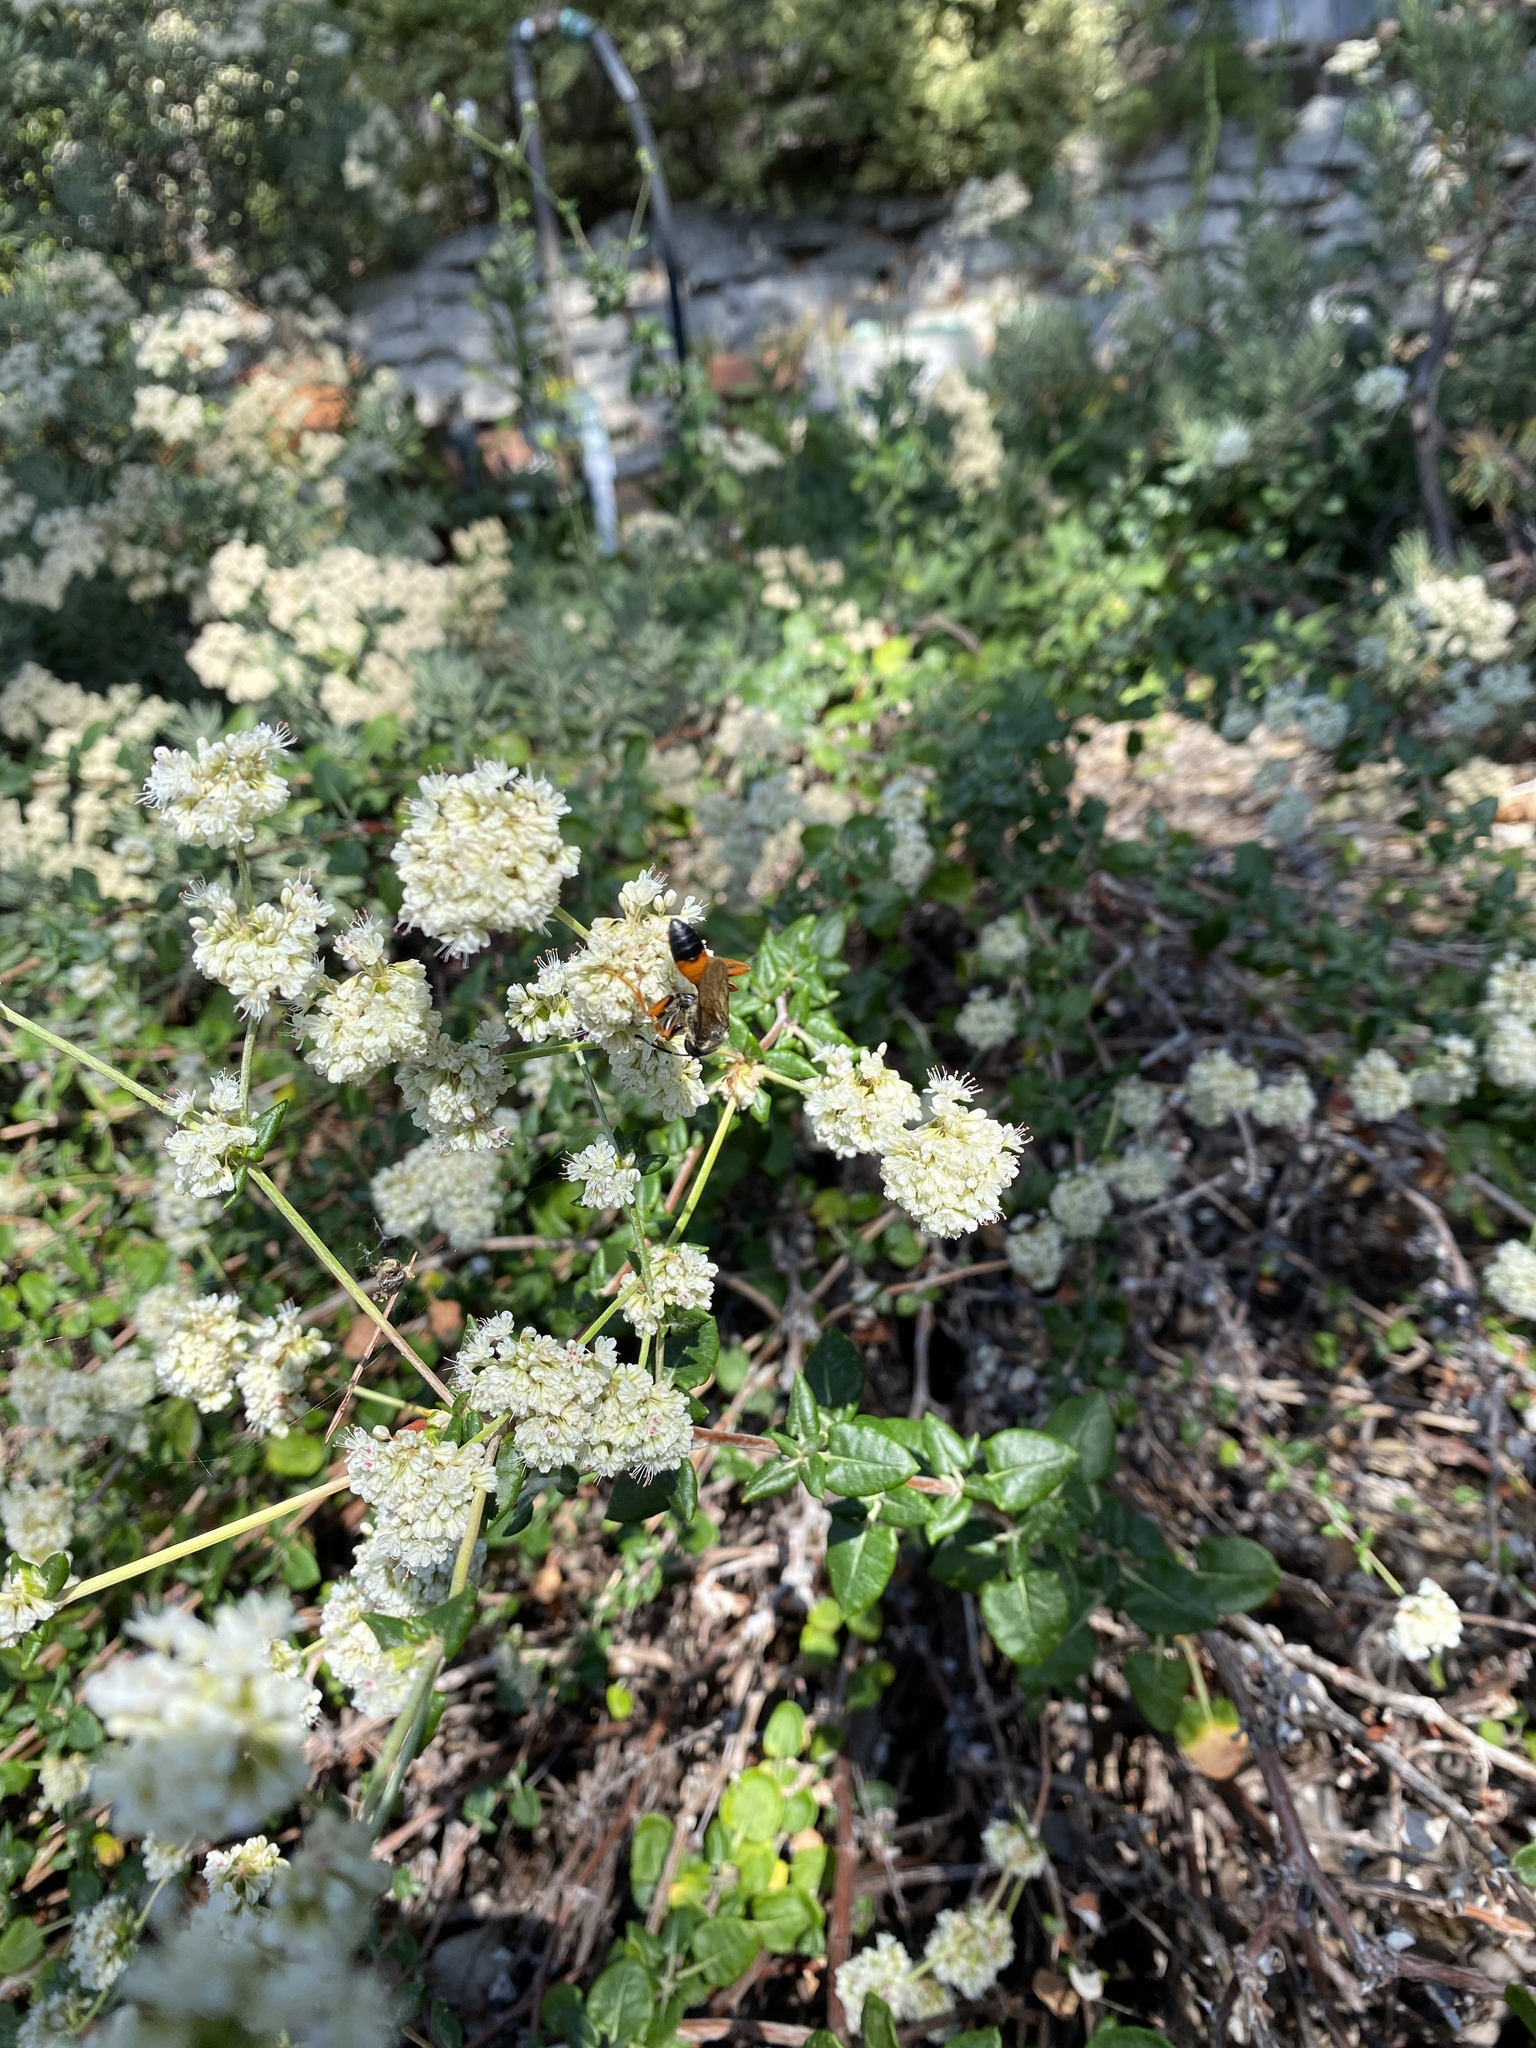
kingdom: Animalia
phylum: Arthropoda
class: Insecta
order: Hymenoptera
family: Sphecidae
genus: Sphex
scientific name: Sphex ichneumoneus
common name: Great golden digger wasp
